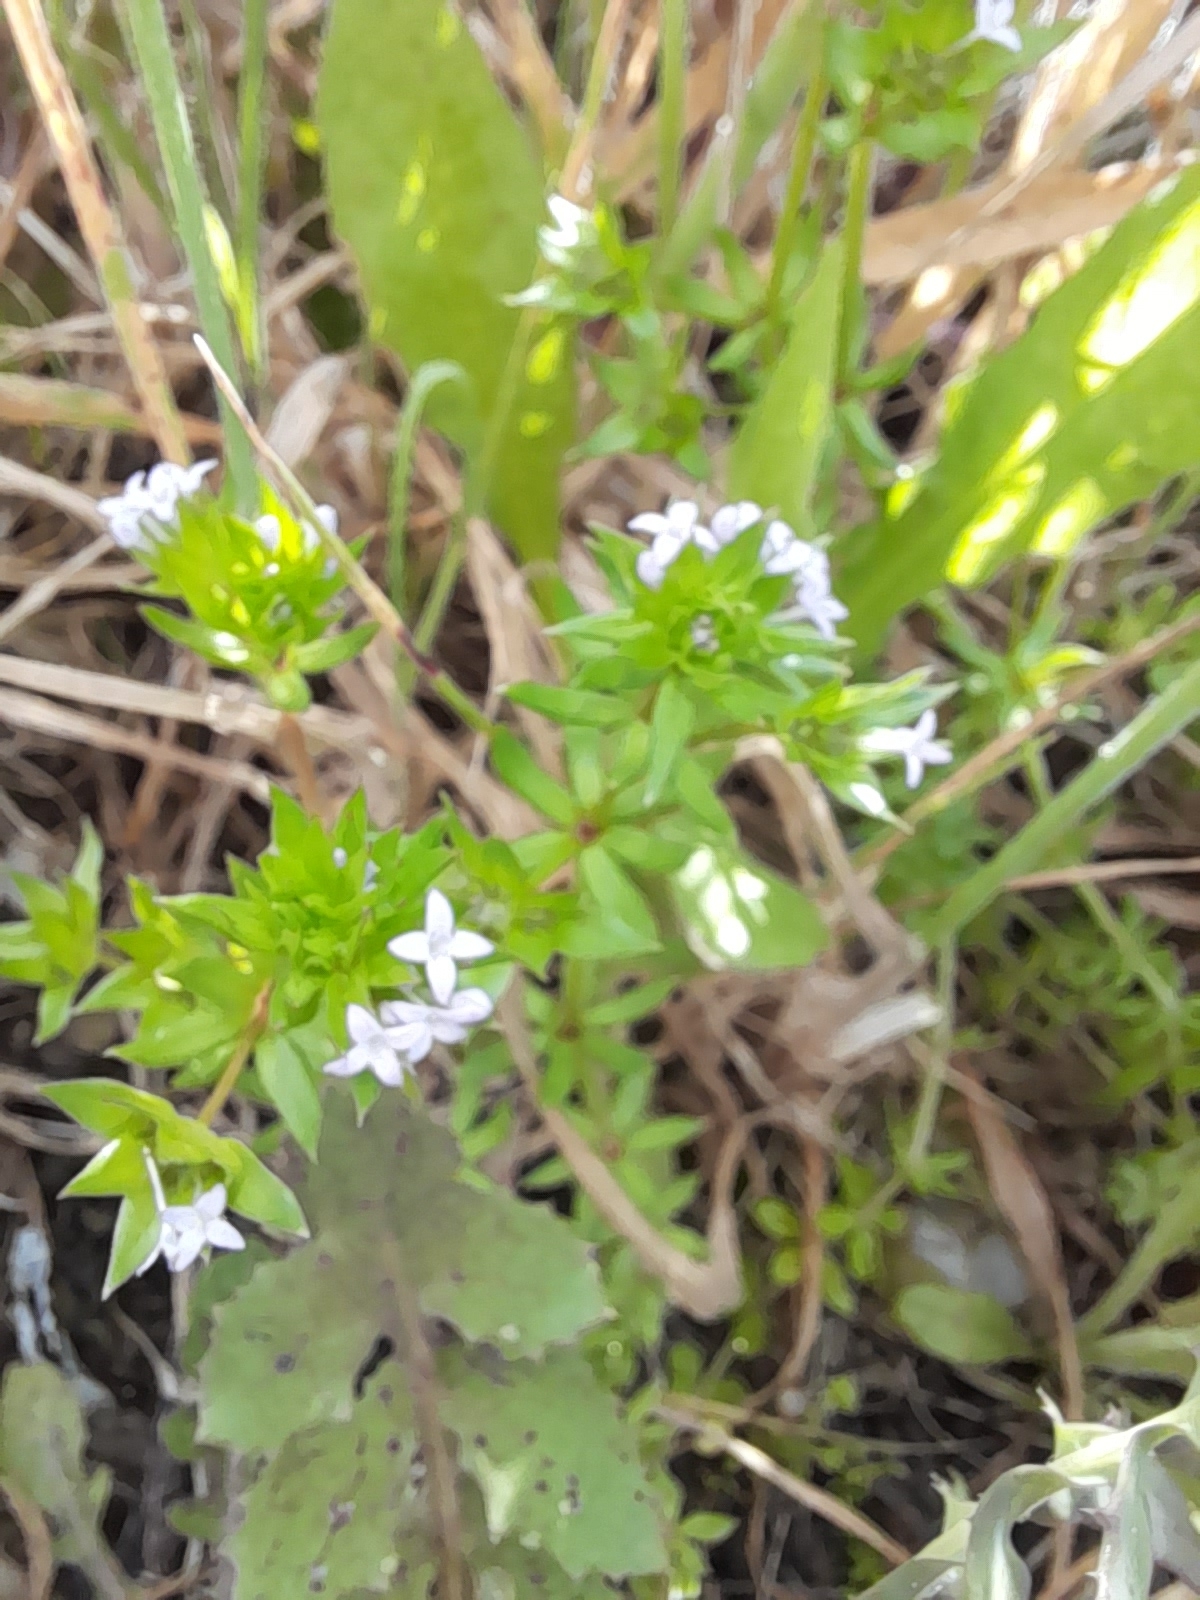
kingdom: Plantae
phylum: Tracheophyta
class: Magnoliopsida
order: Gentianales
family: Rubiaceae
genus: Sherardia
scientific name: Sherardia arvensis
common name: Field madder
